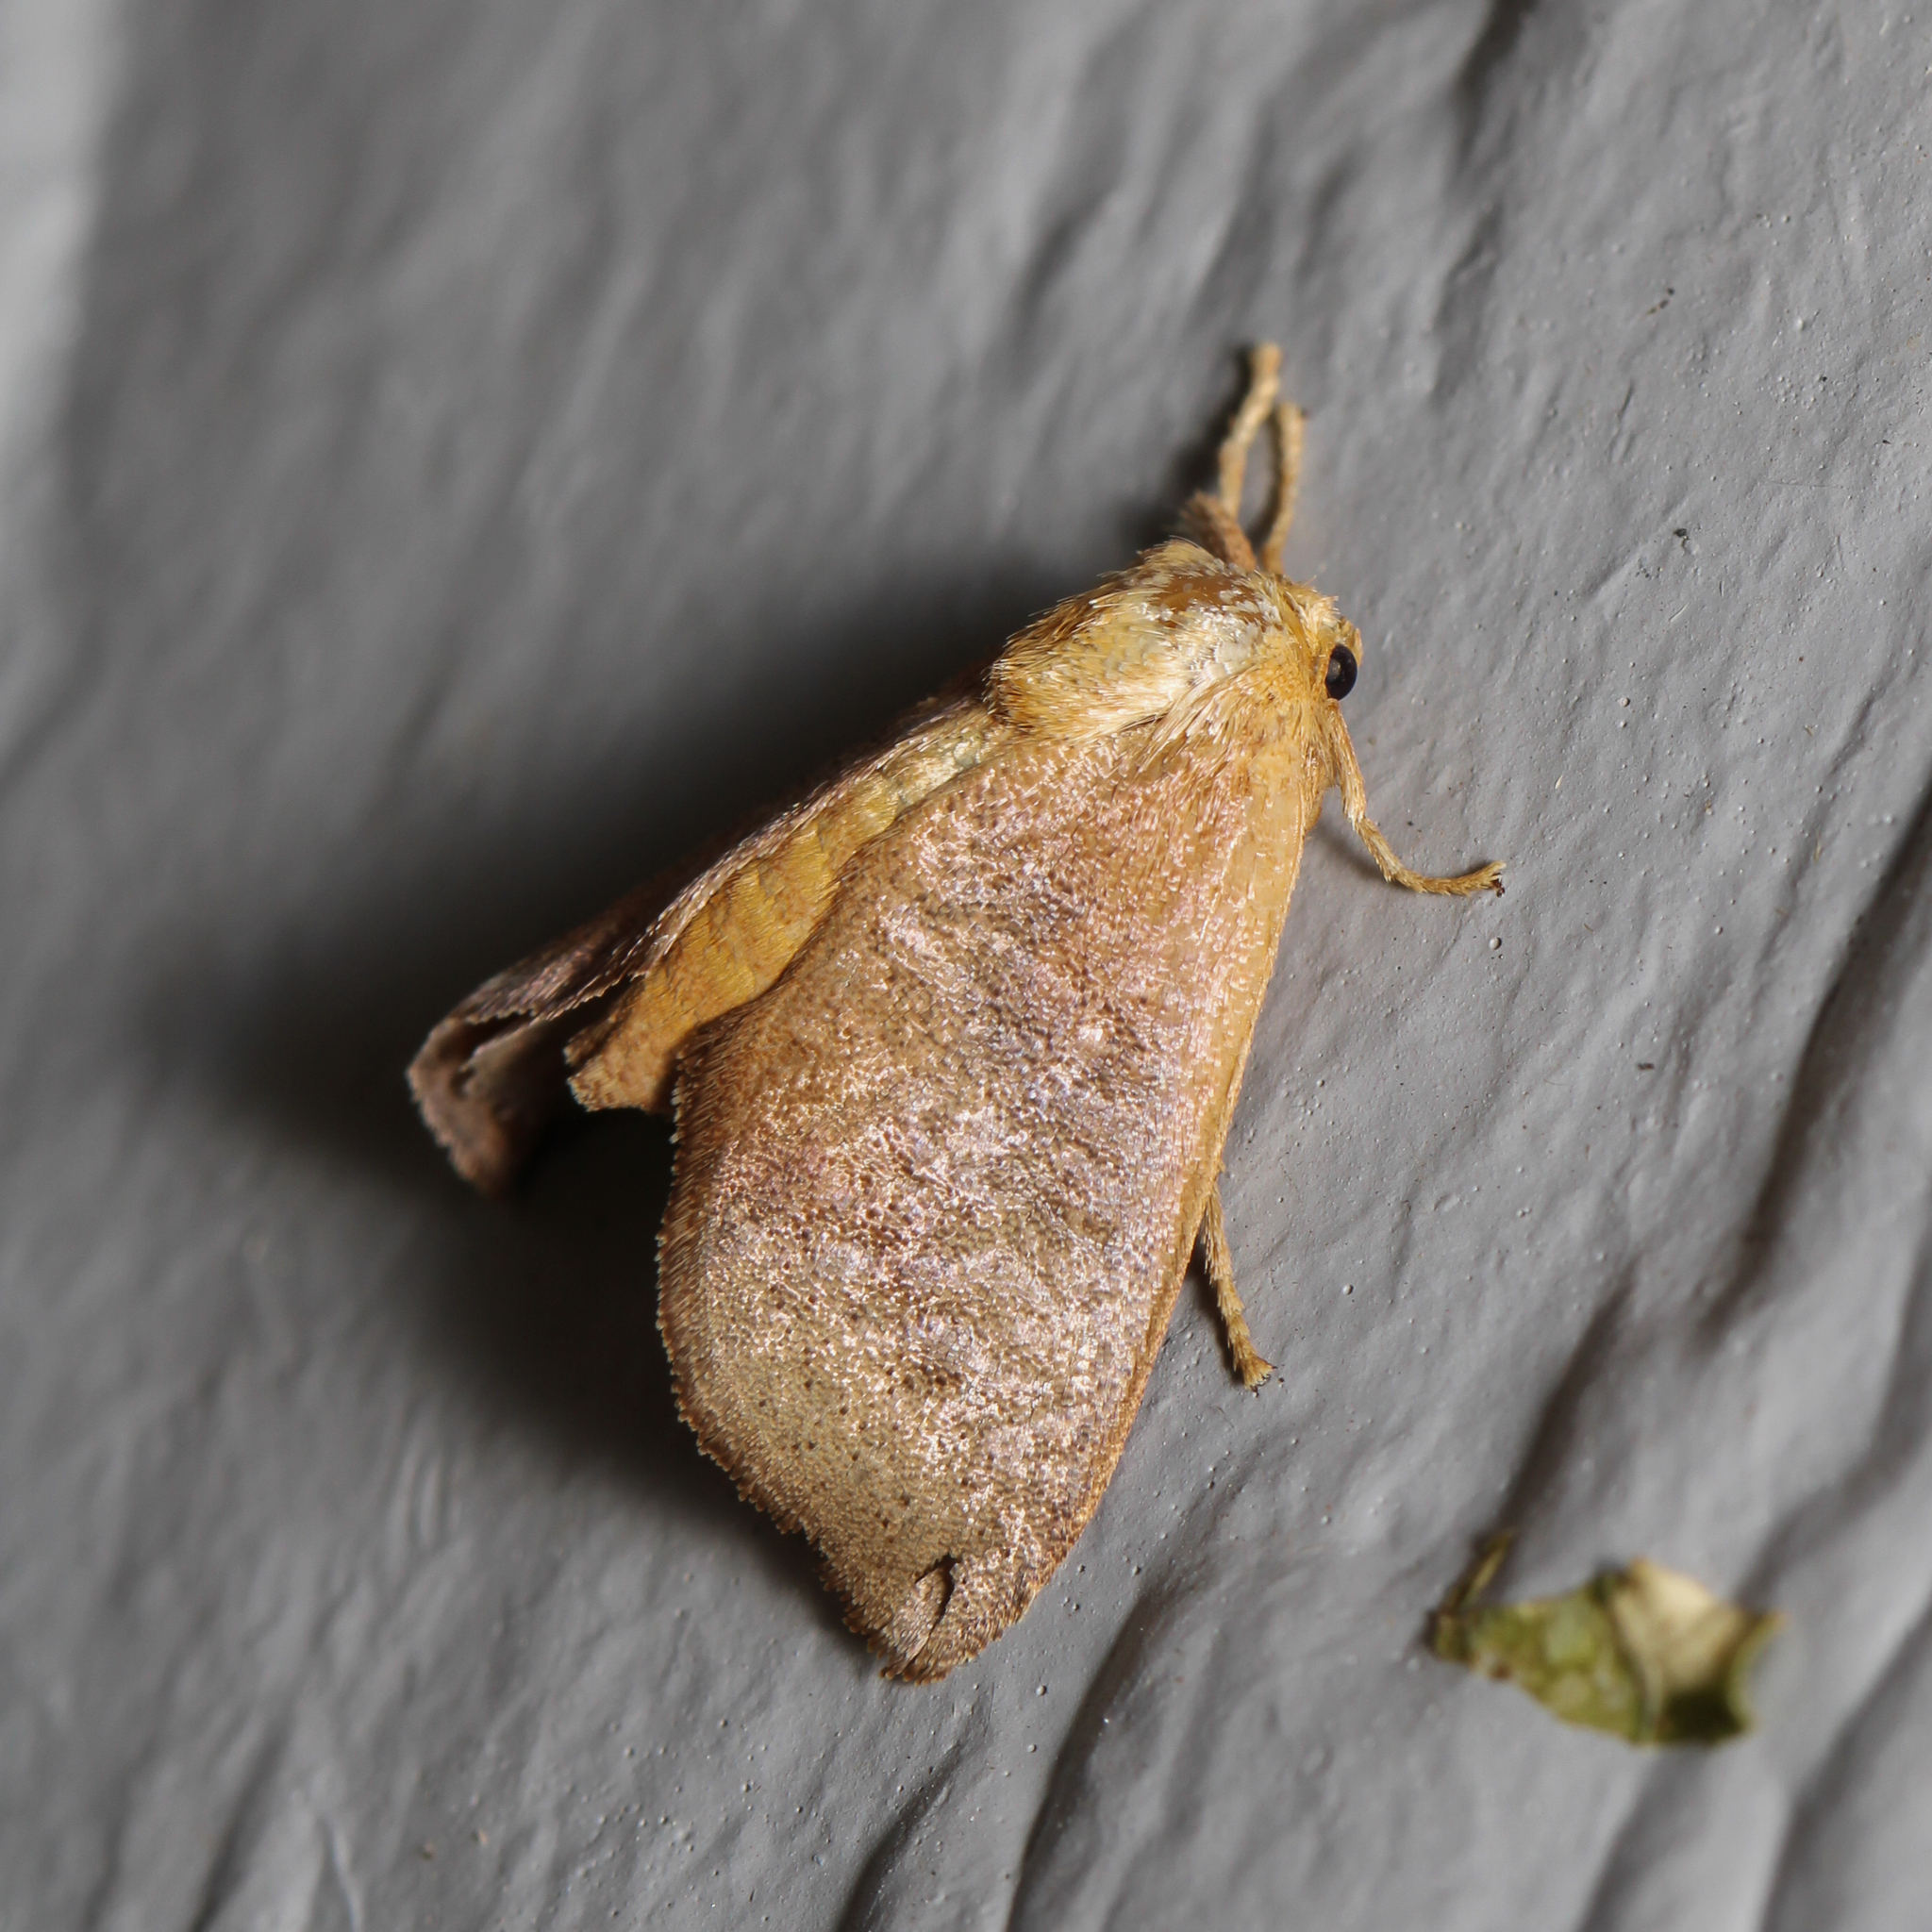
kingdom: Animalia
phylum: Arthropoda
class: Insecta
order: Lepidoptera
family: Limacodidae
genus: Isa
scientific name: Isa textula
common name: Crowned slug moth
